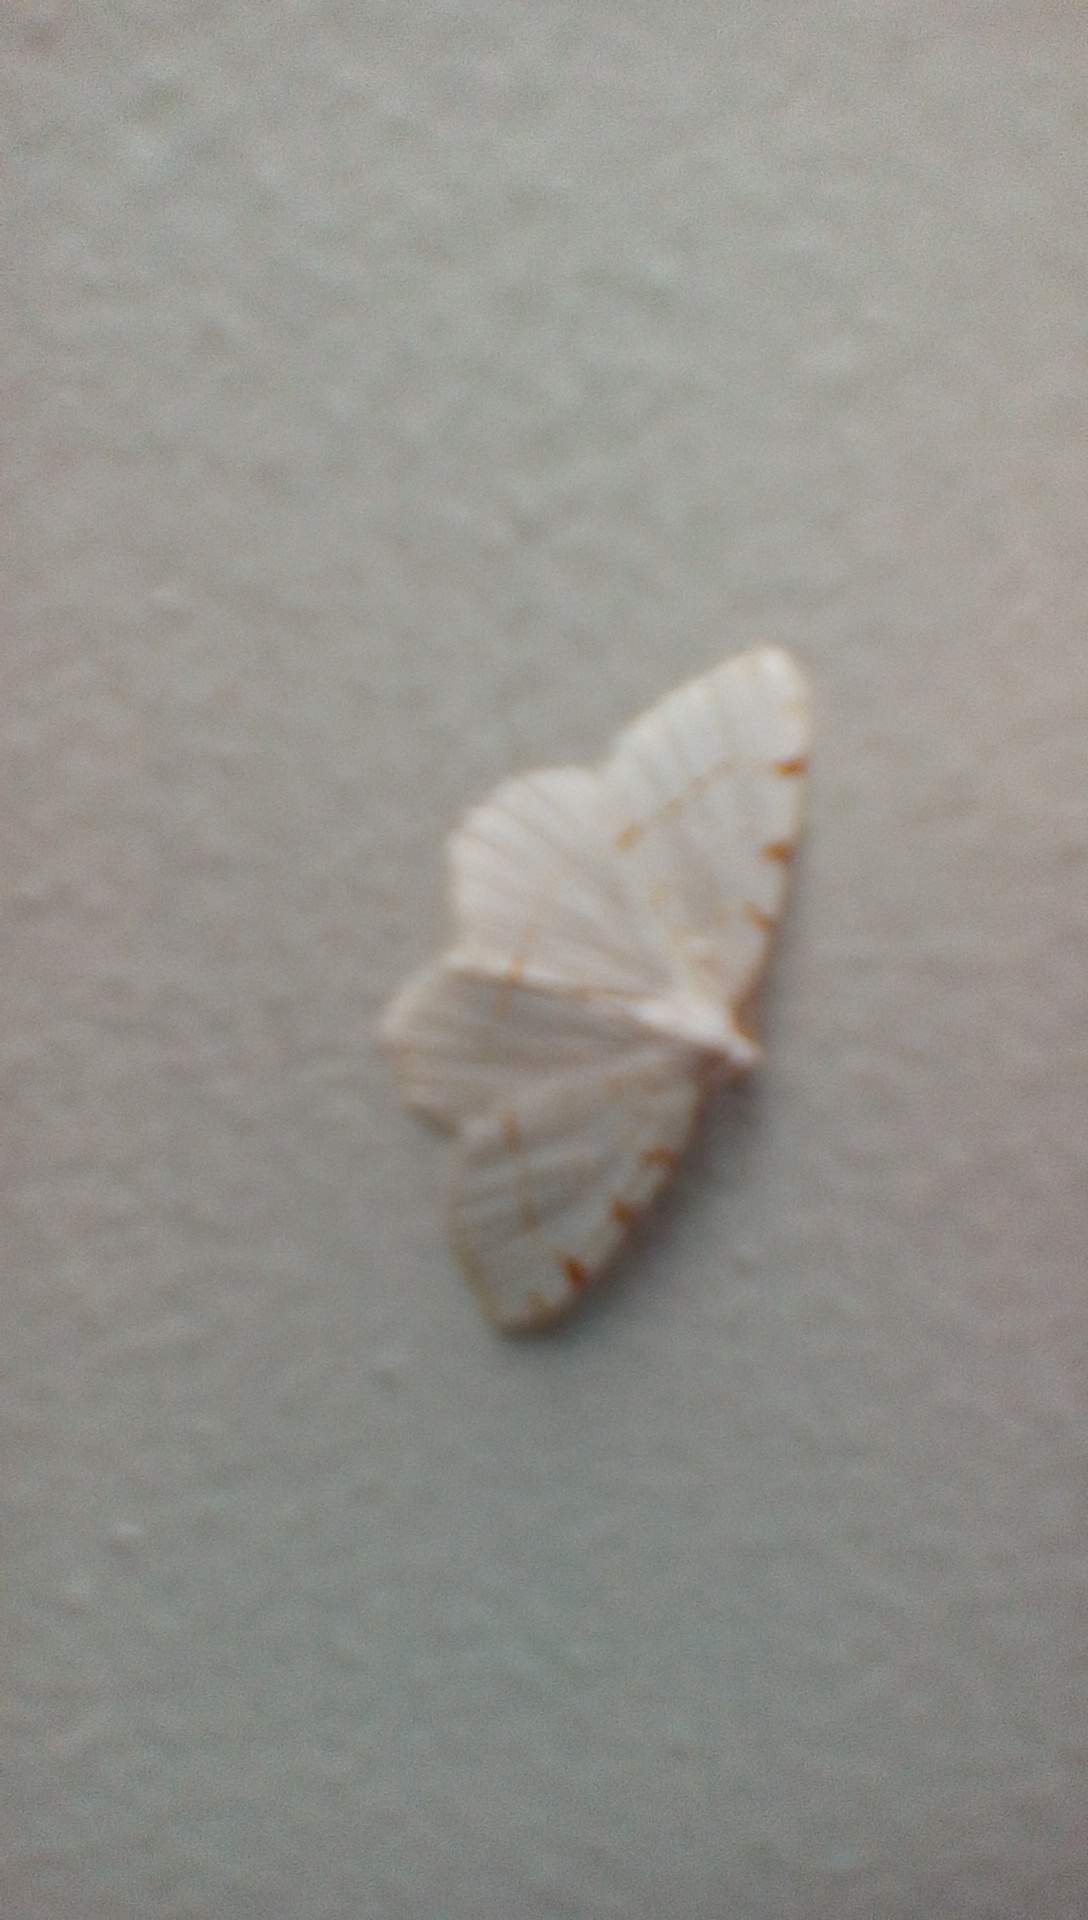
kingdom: Animalia
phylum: Arthropoda
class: Insecta
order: Lepidoptera
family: Geometridae
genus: Macaria
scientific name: Macaria pustularia
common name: Lesser maple spanworm moth
